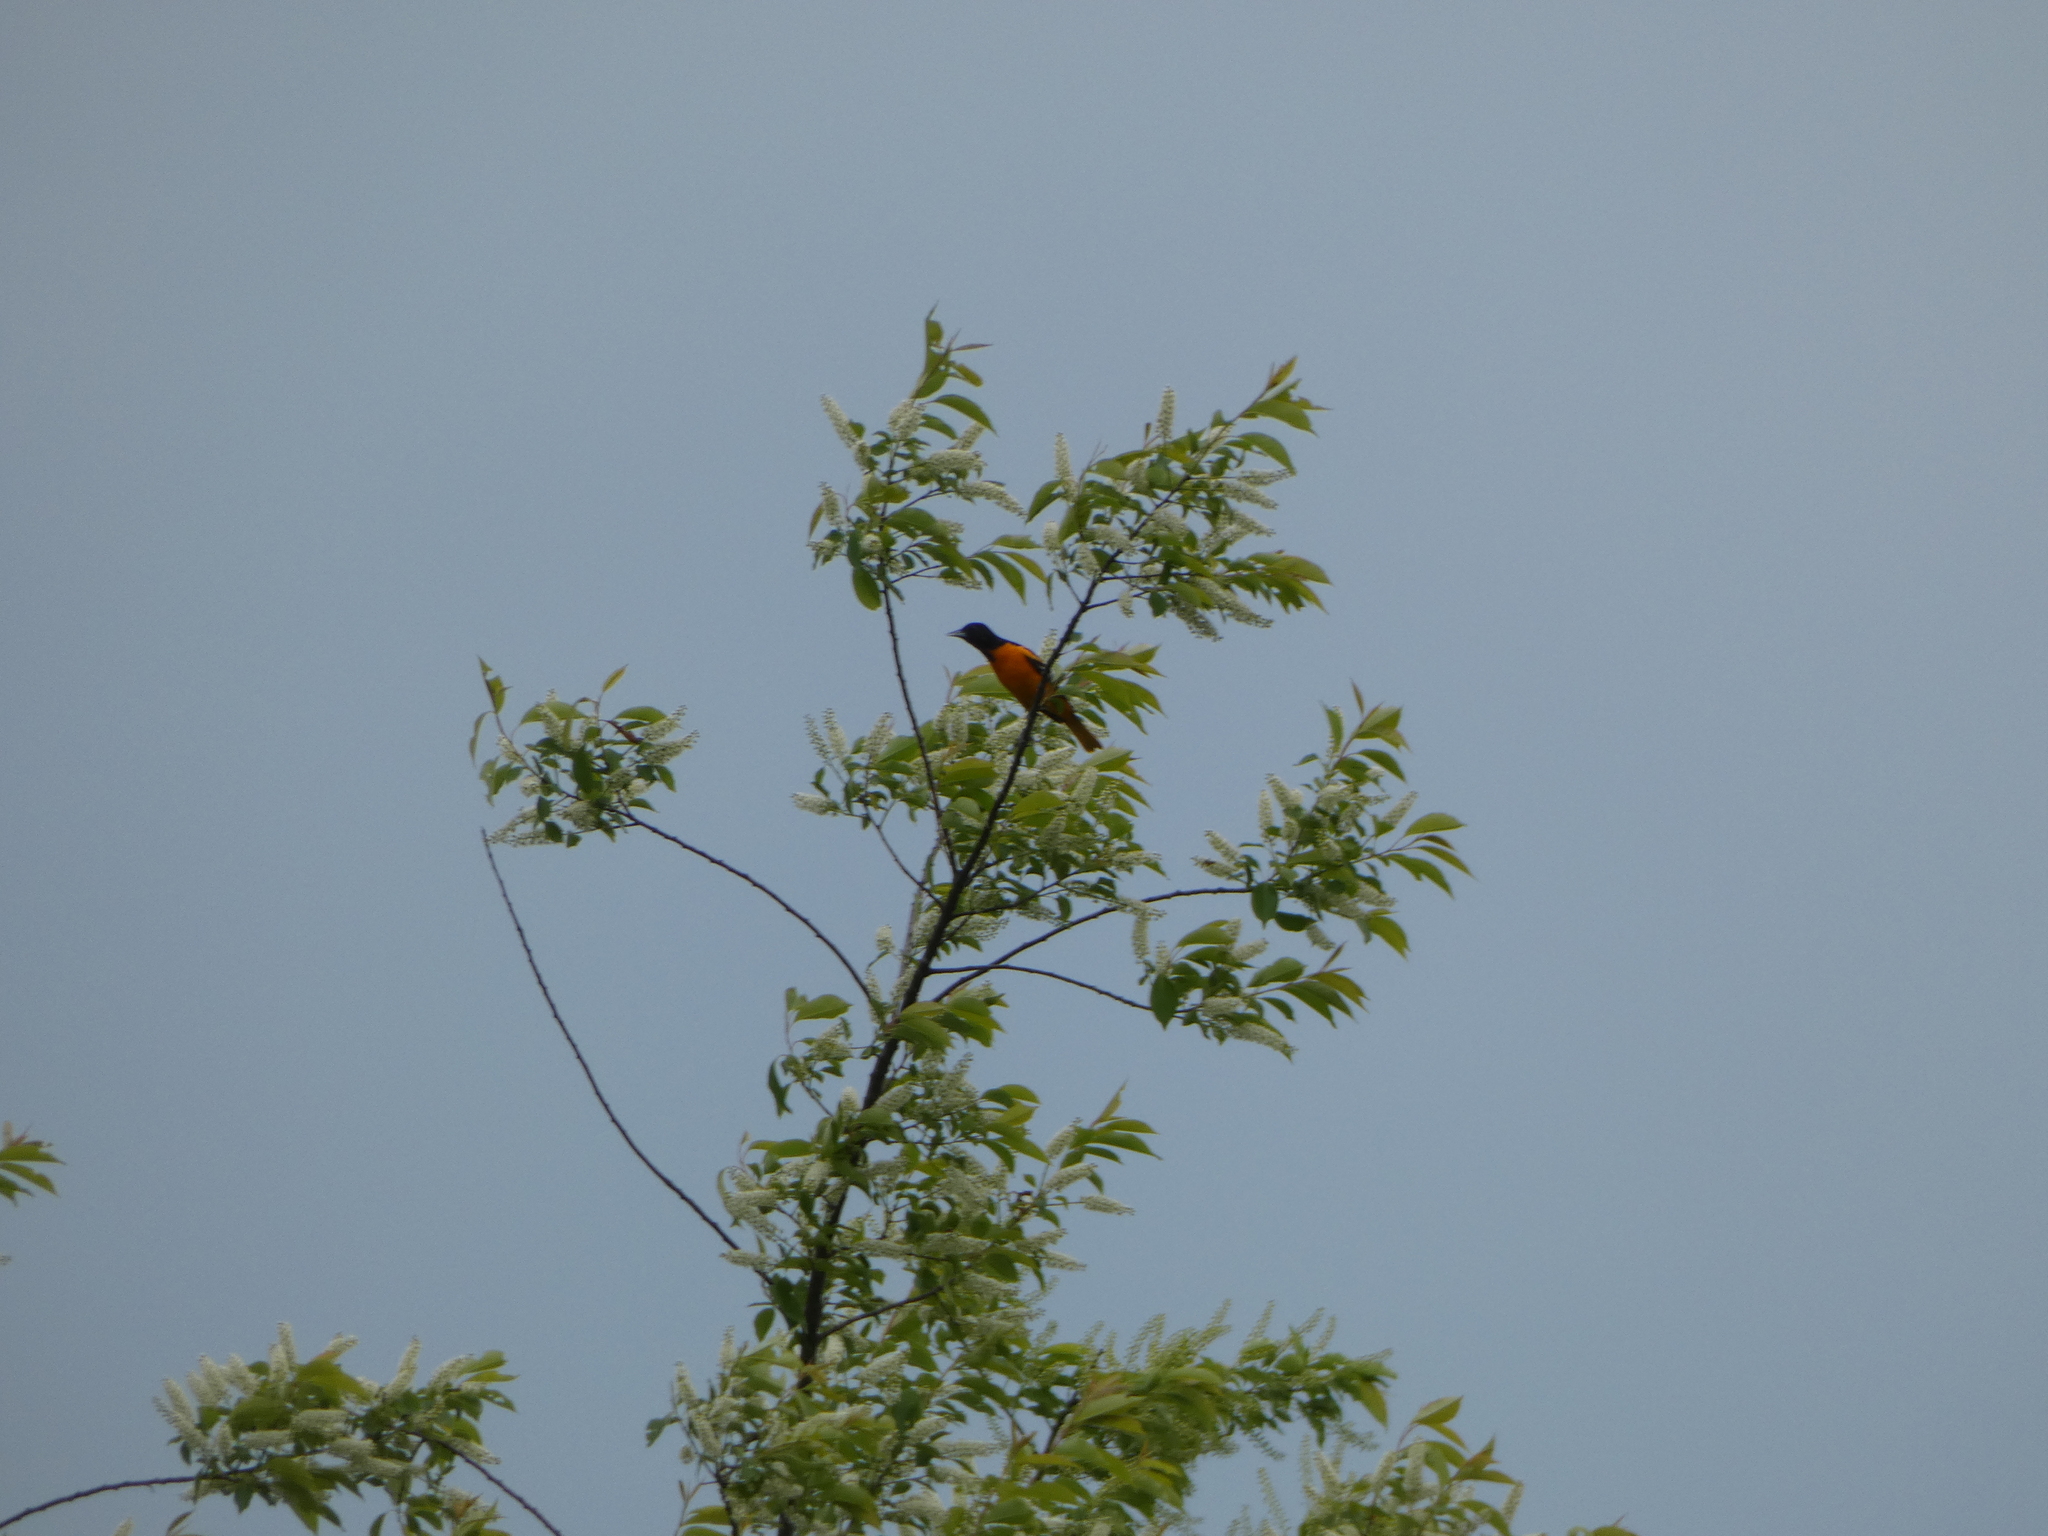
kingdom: Animalia
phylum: Chordata
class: Aves
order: Passeriformes
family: Icteridae
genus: Icterus
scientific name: Icterus galbula
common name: Baltimore oriole
